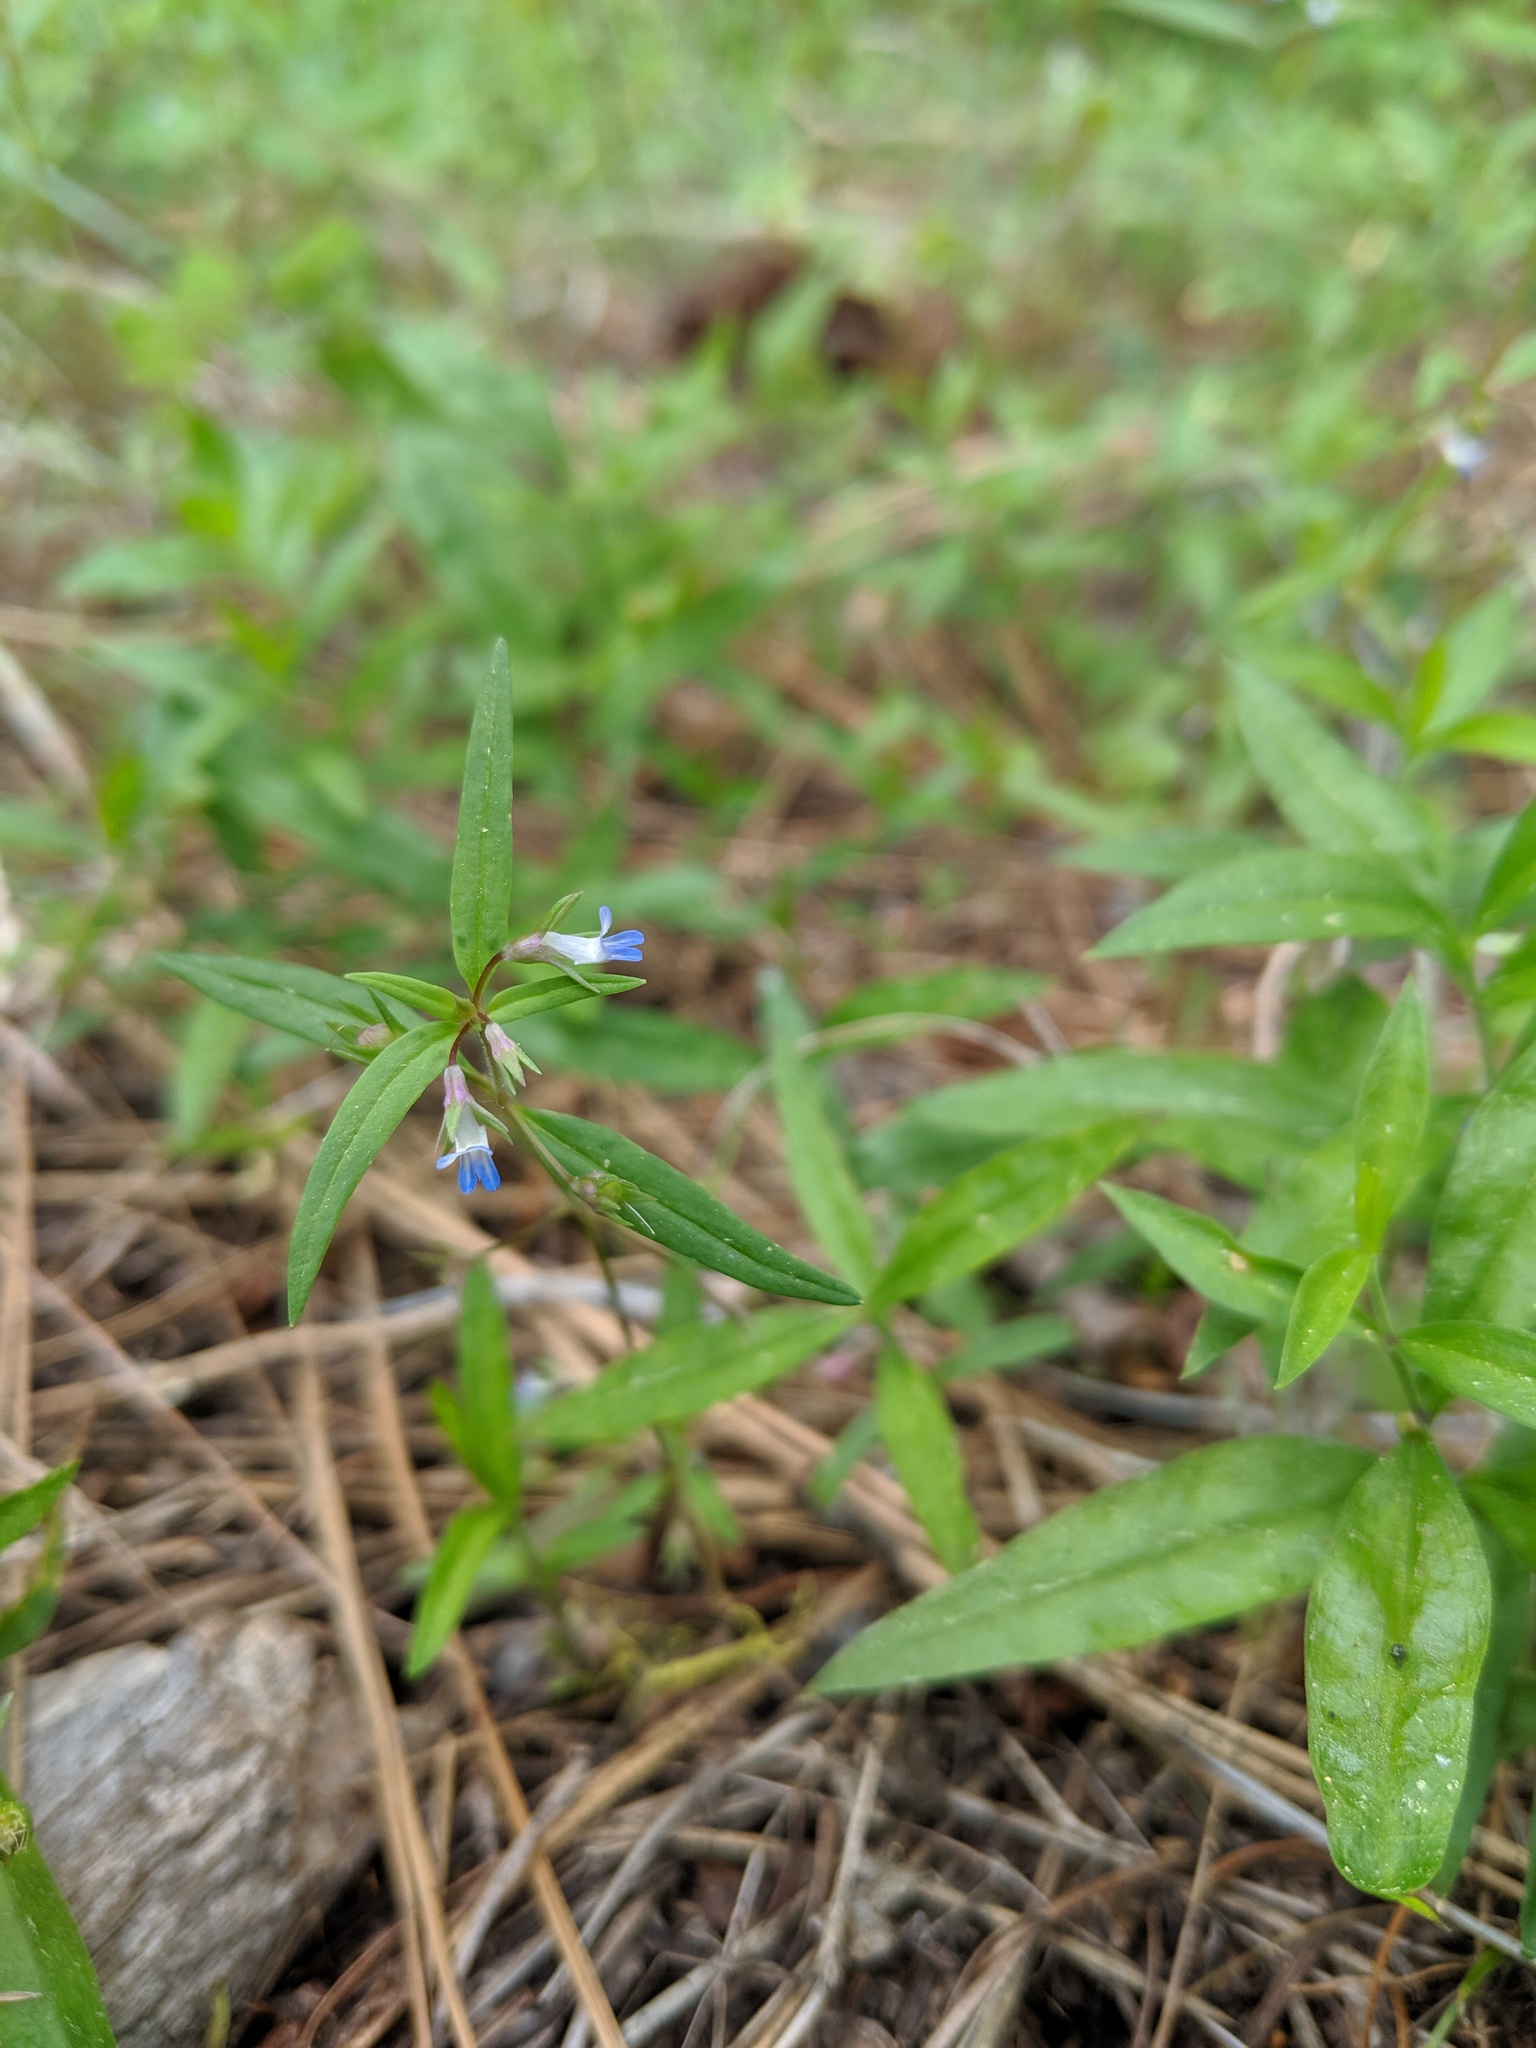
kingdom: Plantae
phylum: Tracheophyta
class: Magnoliopsida
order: Lamiales
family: Plantaginaceae
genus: Collinsia
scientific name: Collinsia parviflora
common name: Blue-lips
